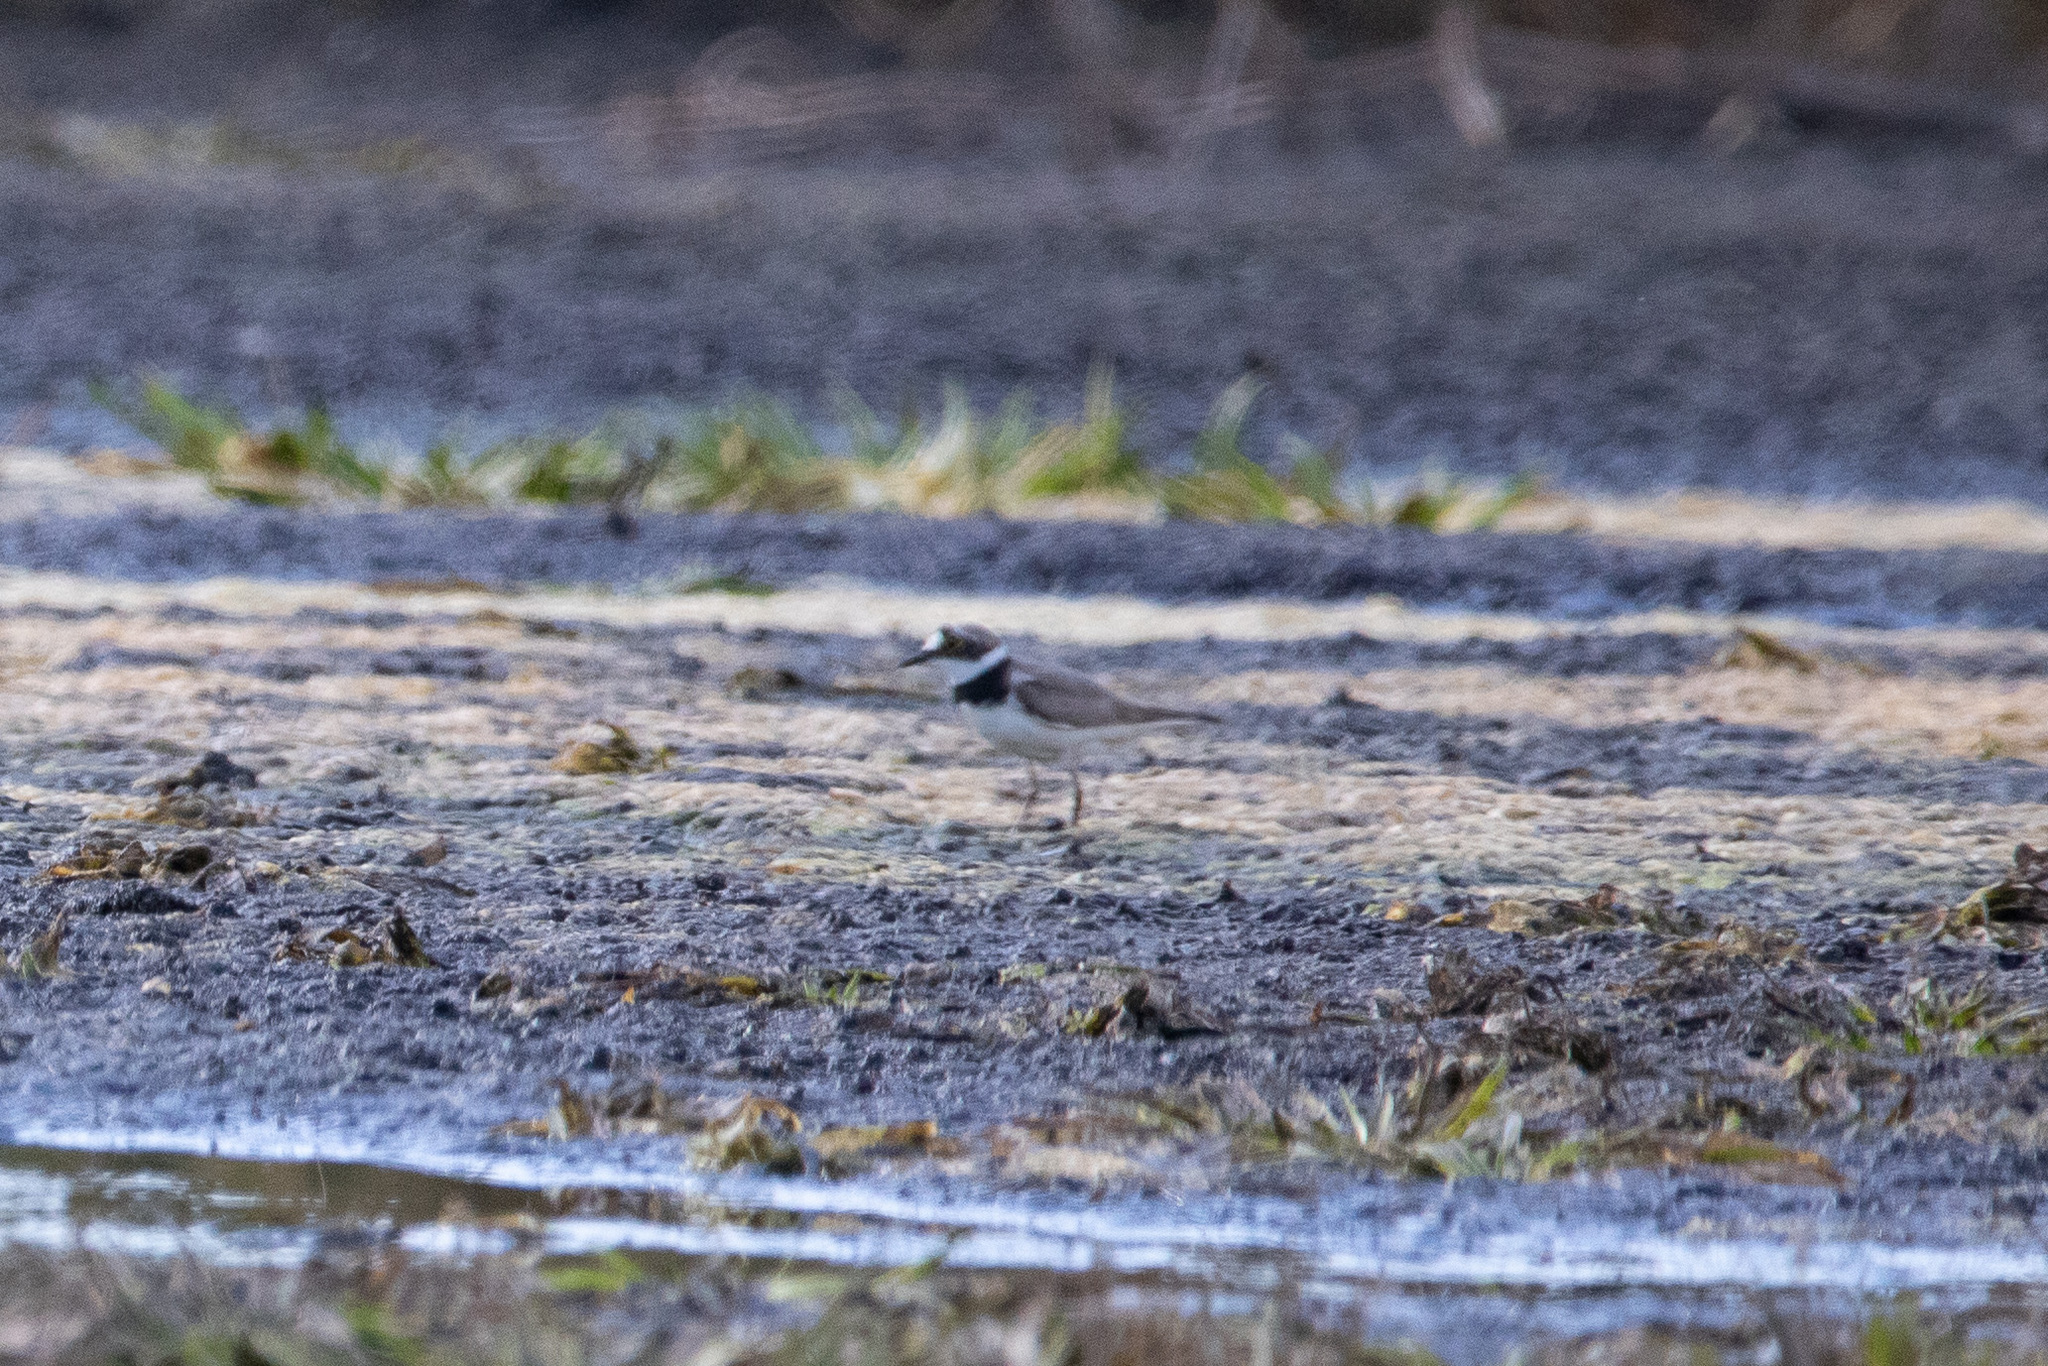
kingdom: Animalia
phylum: Chordata
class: Aves
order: Charadriiformes
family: Charadriidae
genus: Charadrius
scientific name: Charadrius dubius
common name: Little ringed plover
